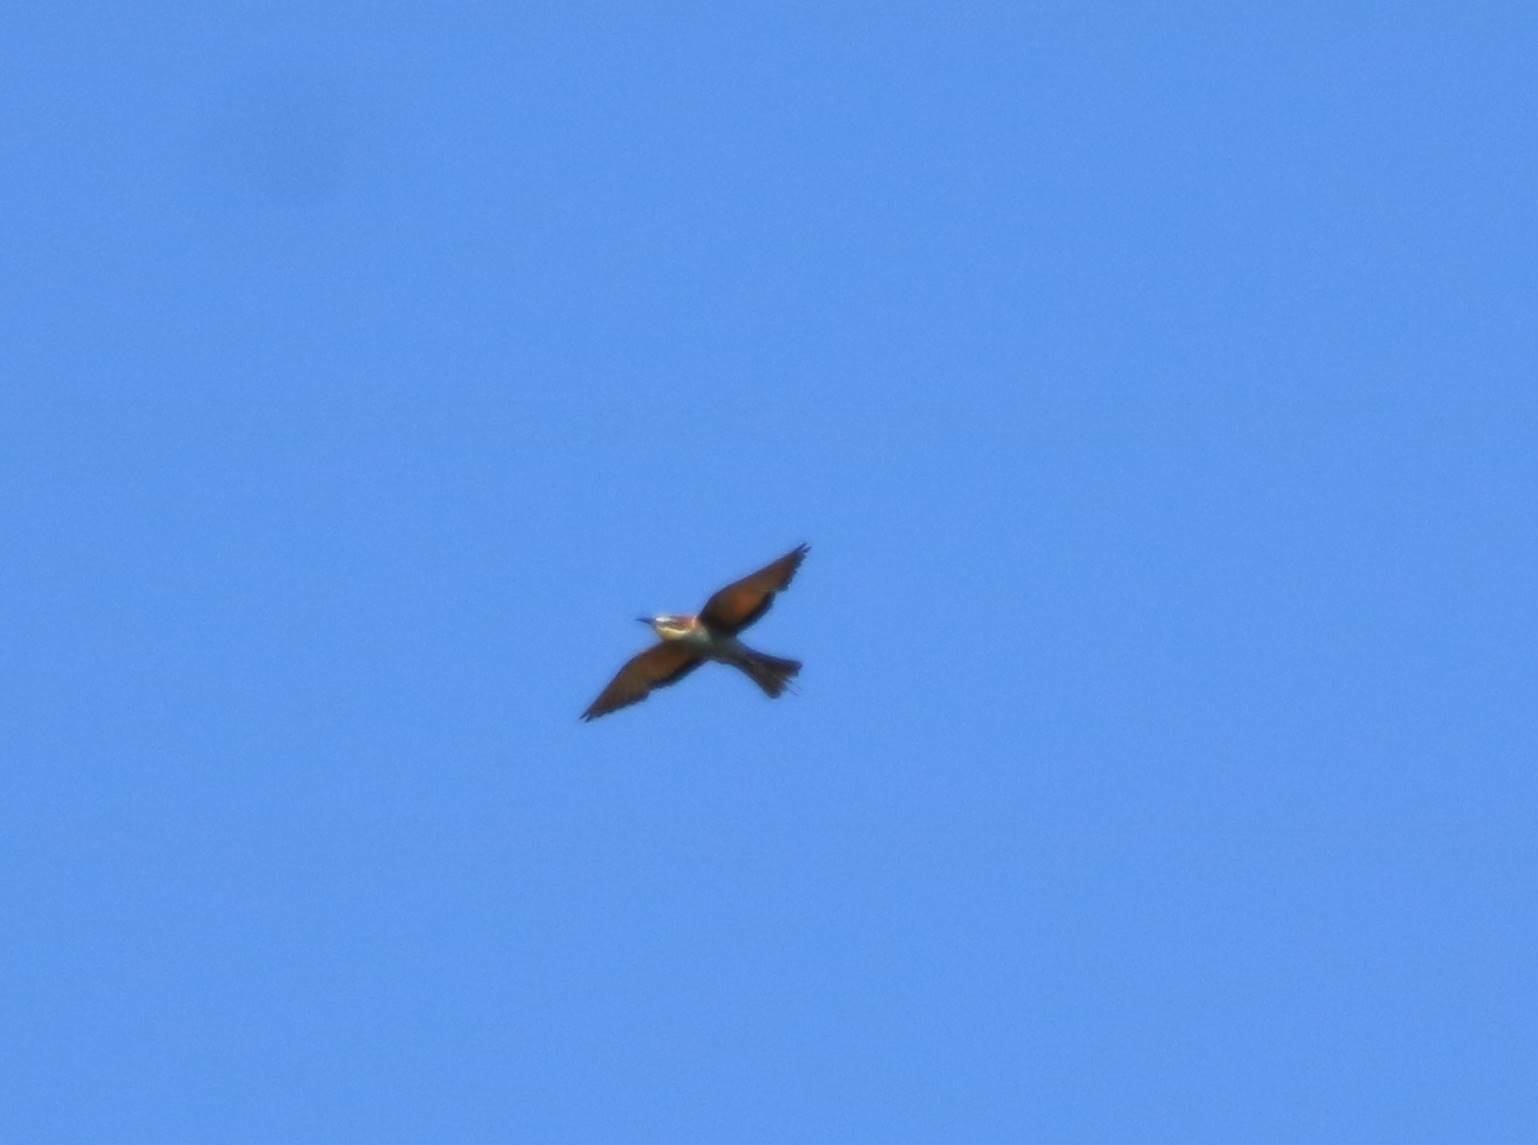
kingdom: Animalia
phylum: Chordata
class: Aves
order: Coraciiformes
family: Meropidae
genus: Merops
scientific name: Merops apiaster
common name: European bee-eater
